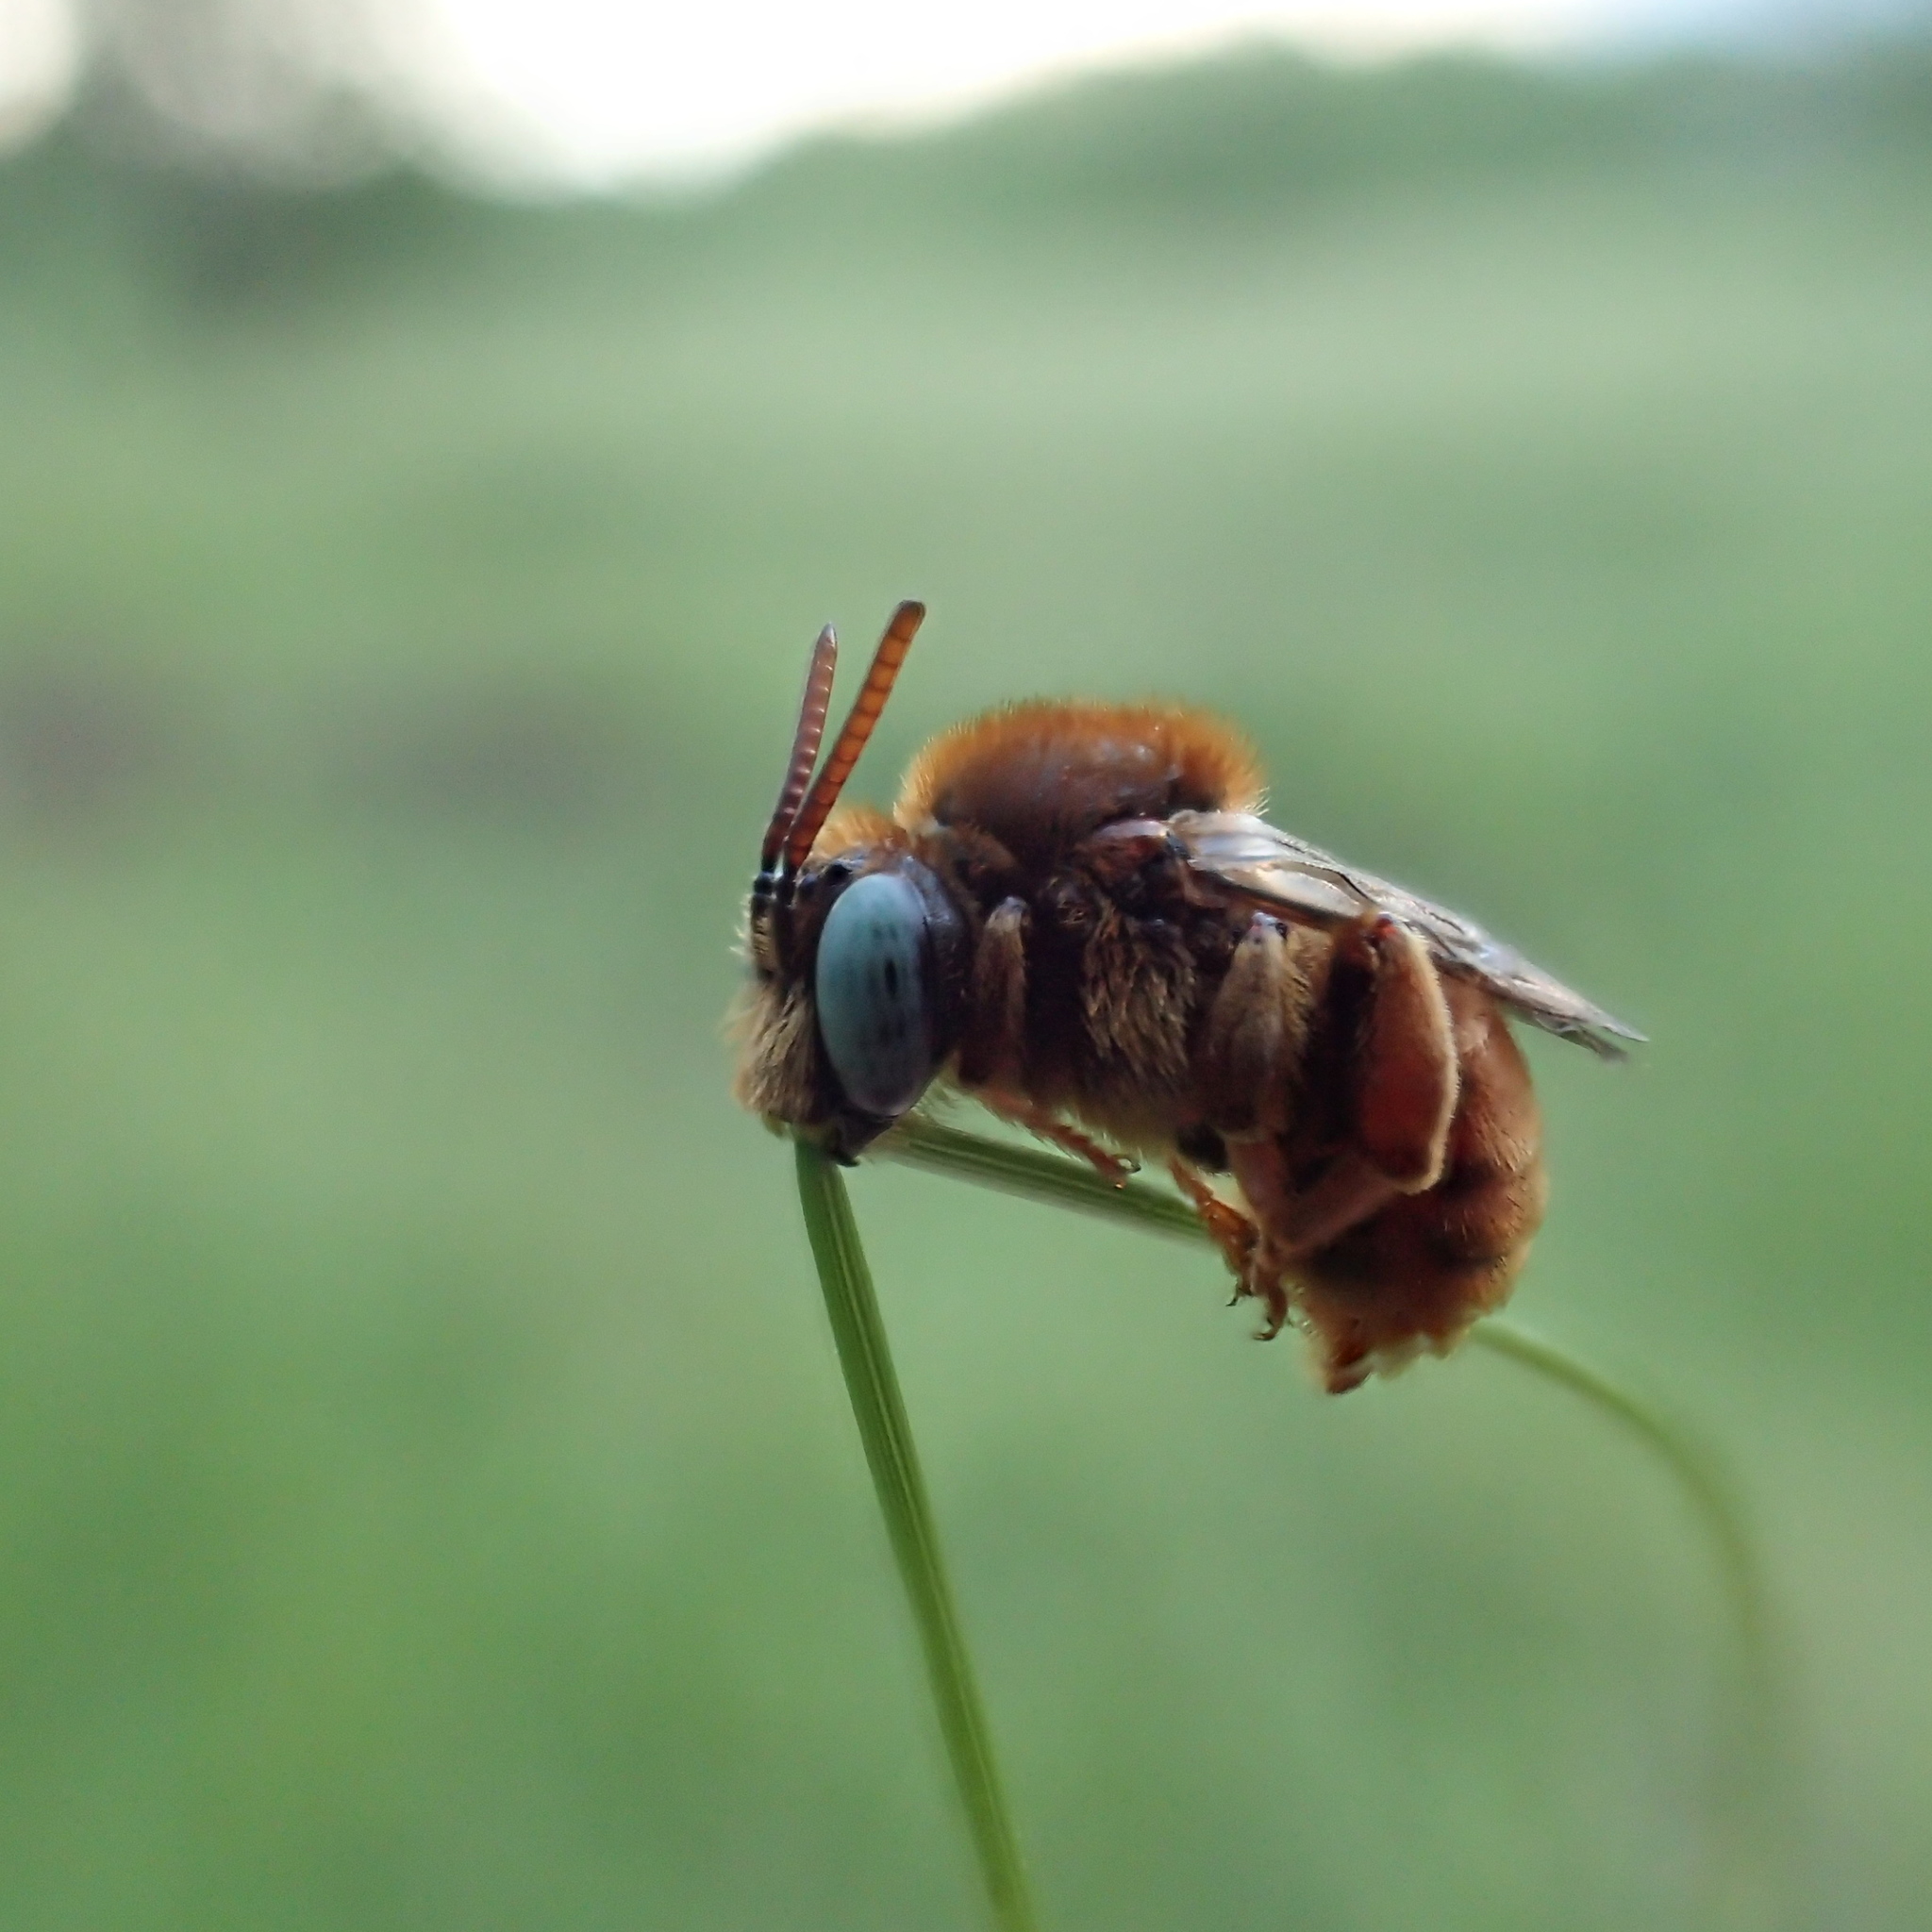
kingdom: Animalia
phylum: Arthropoda
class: Insecta
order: Hymenoptera
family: Apidae
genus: Epeoloides
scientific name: Epeoloides coecutiens
